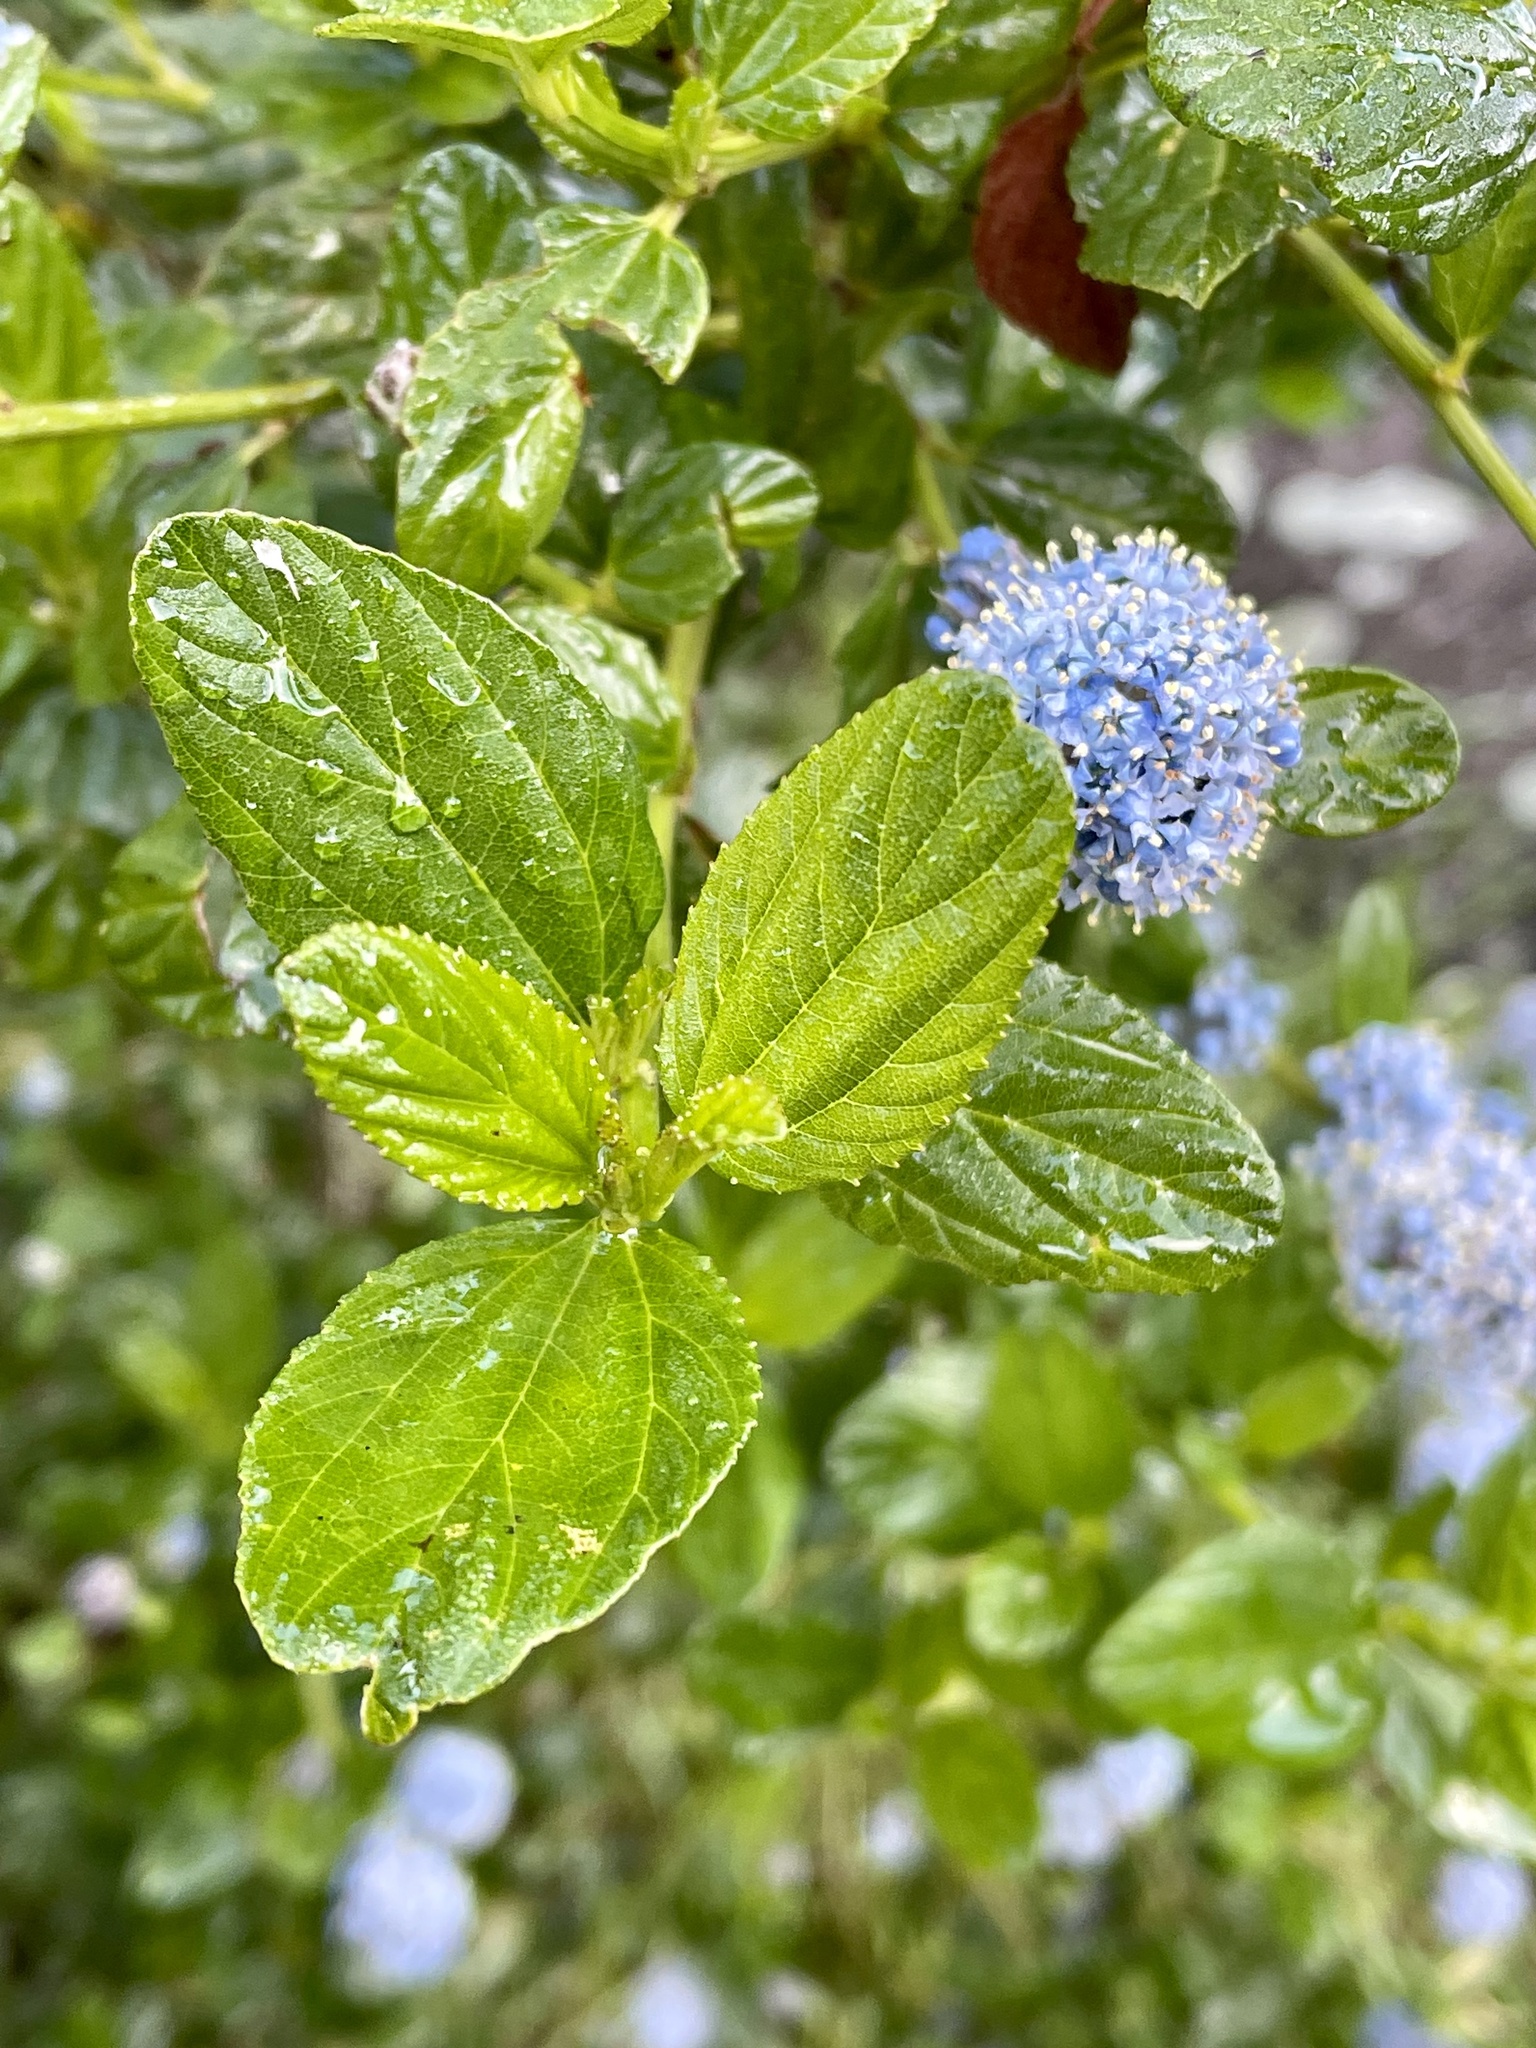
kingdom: Plantae
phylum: Tracheophyta
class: Magnoliopsida
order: Rosales
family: Rhamnaceae
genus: Ceanothus
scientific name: Ceanothus thyrsiflorus
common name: California-lilac
